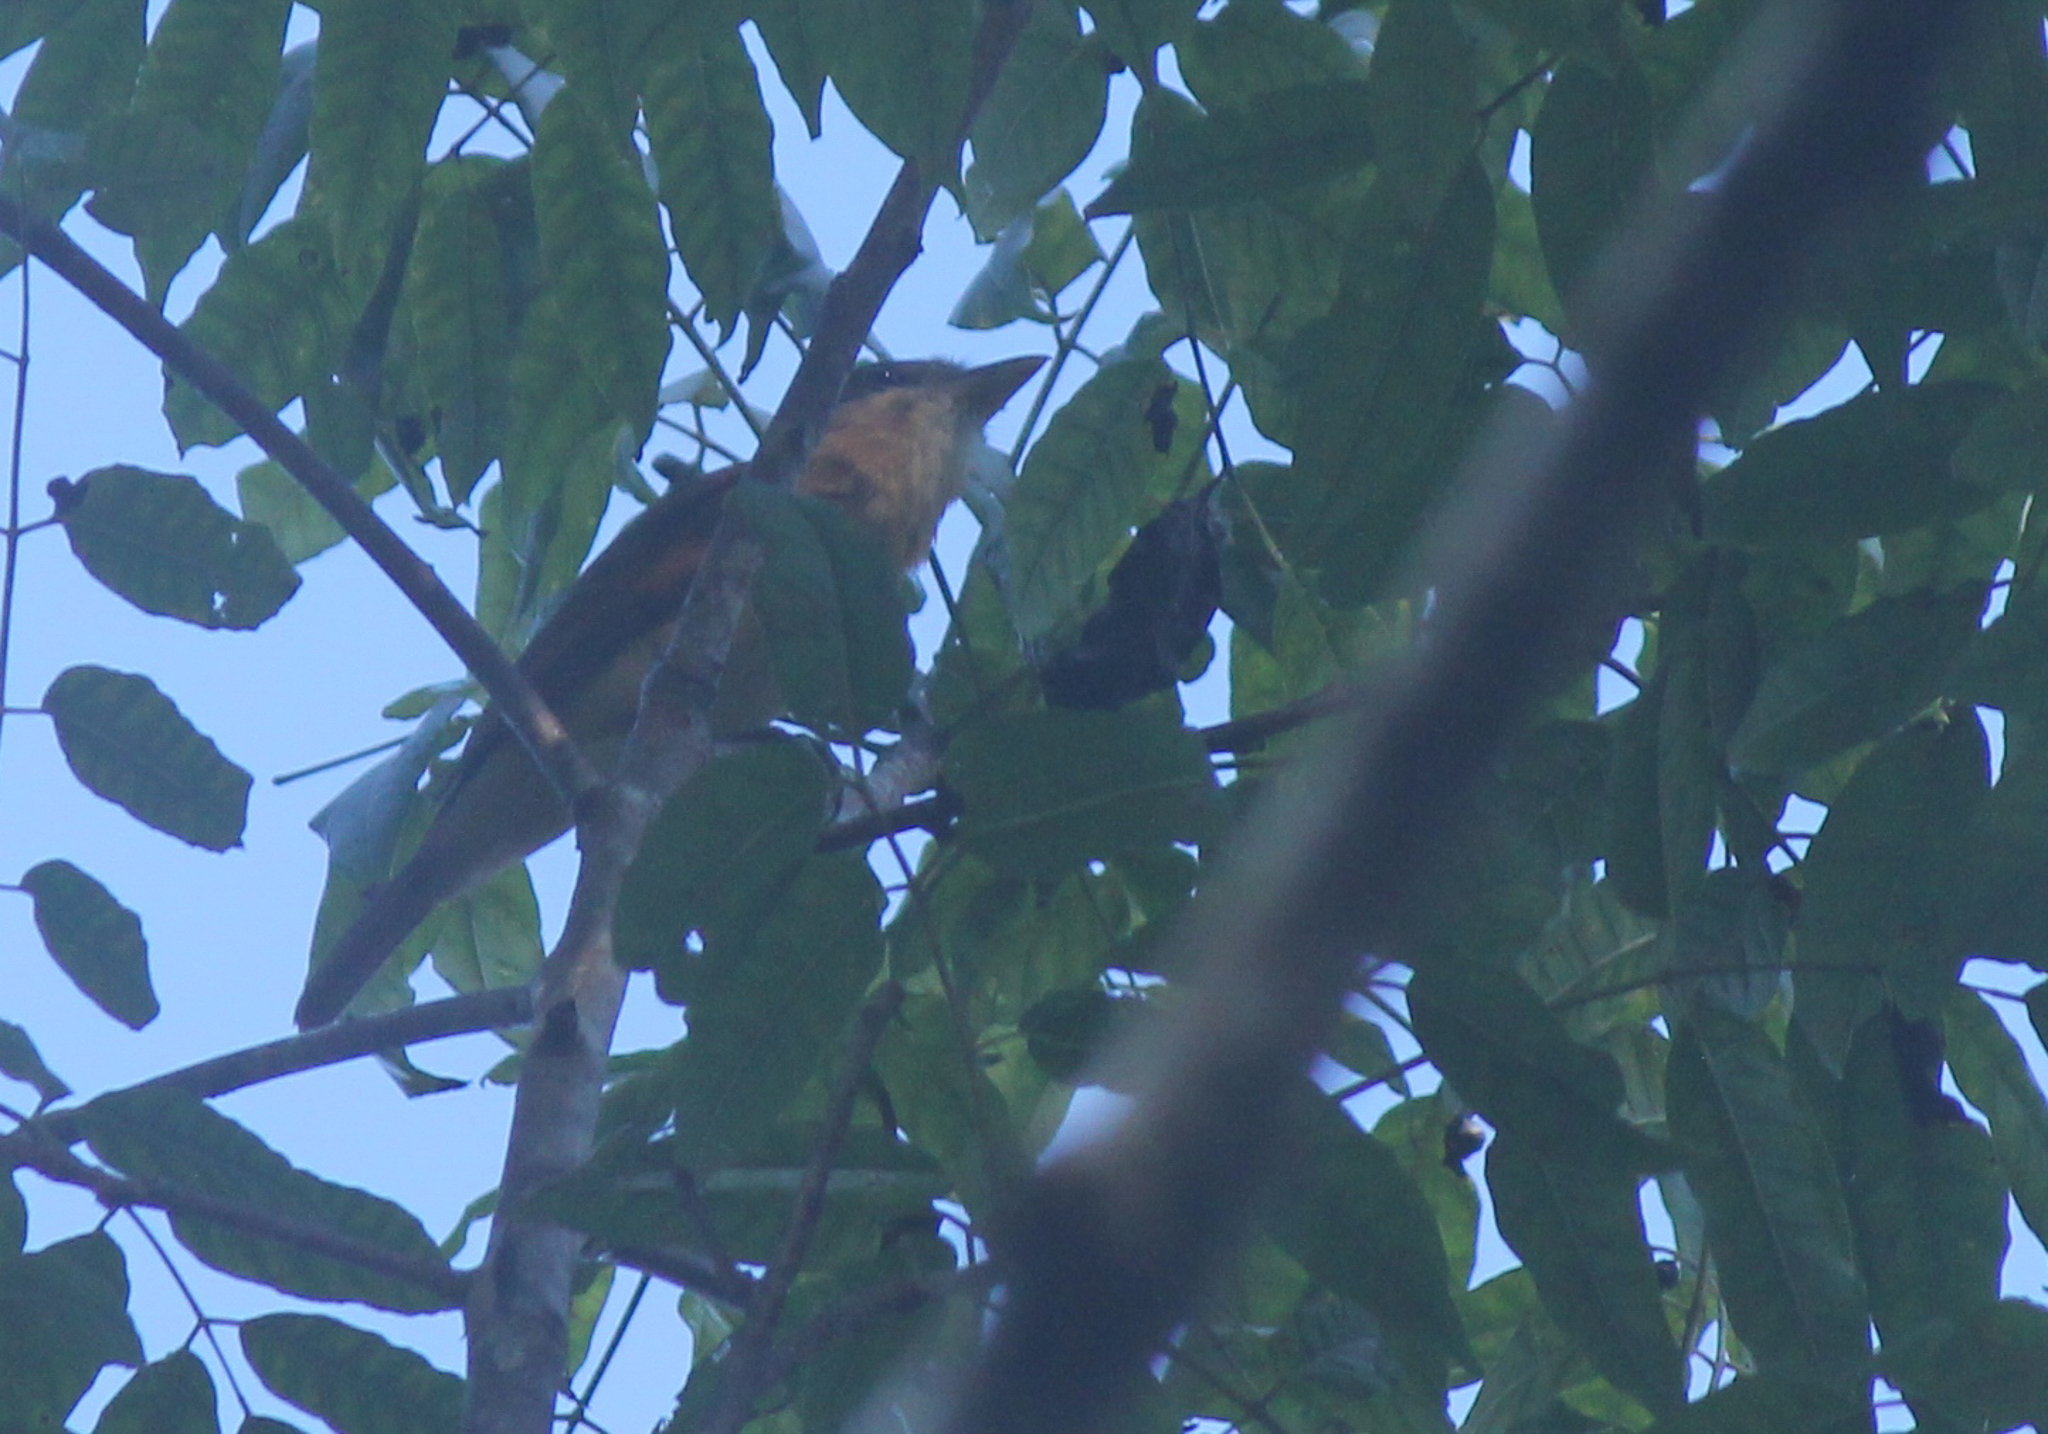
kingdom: Animalia
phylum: Chordata
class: Aves
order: Passeriformes
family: Cotingidae
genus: Pachyramphus
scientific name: Pachyramphus aglaiae
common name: Rose-throated becard
